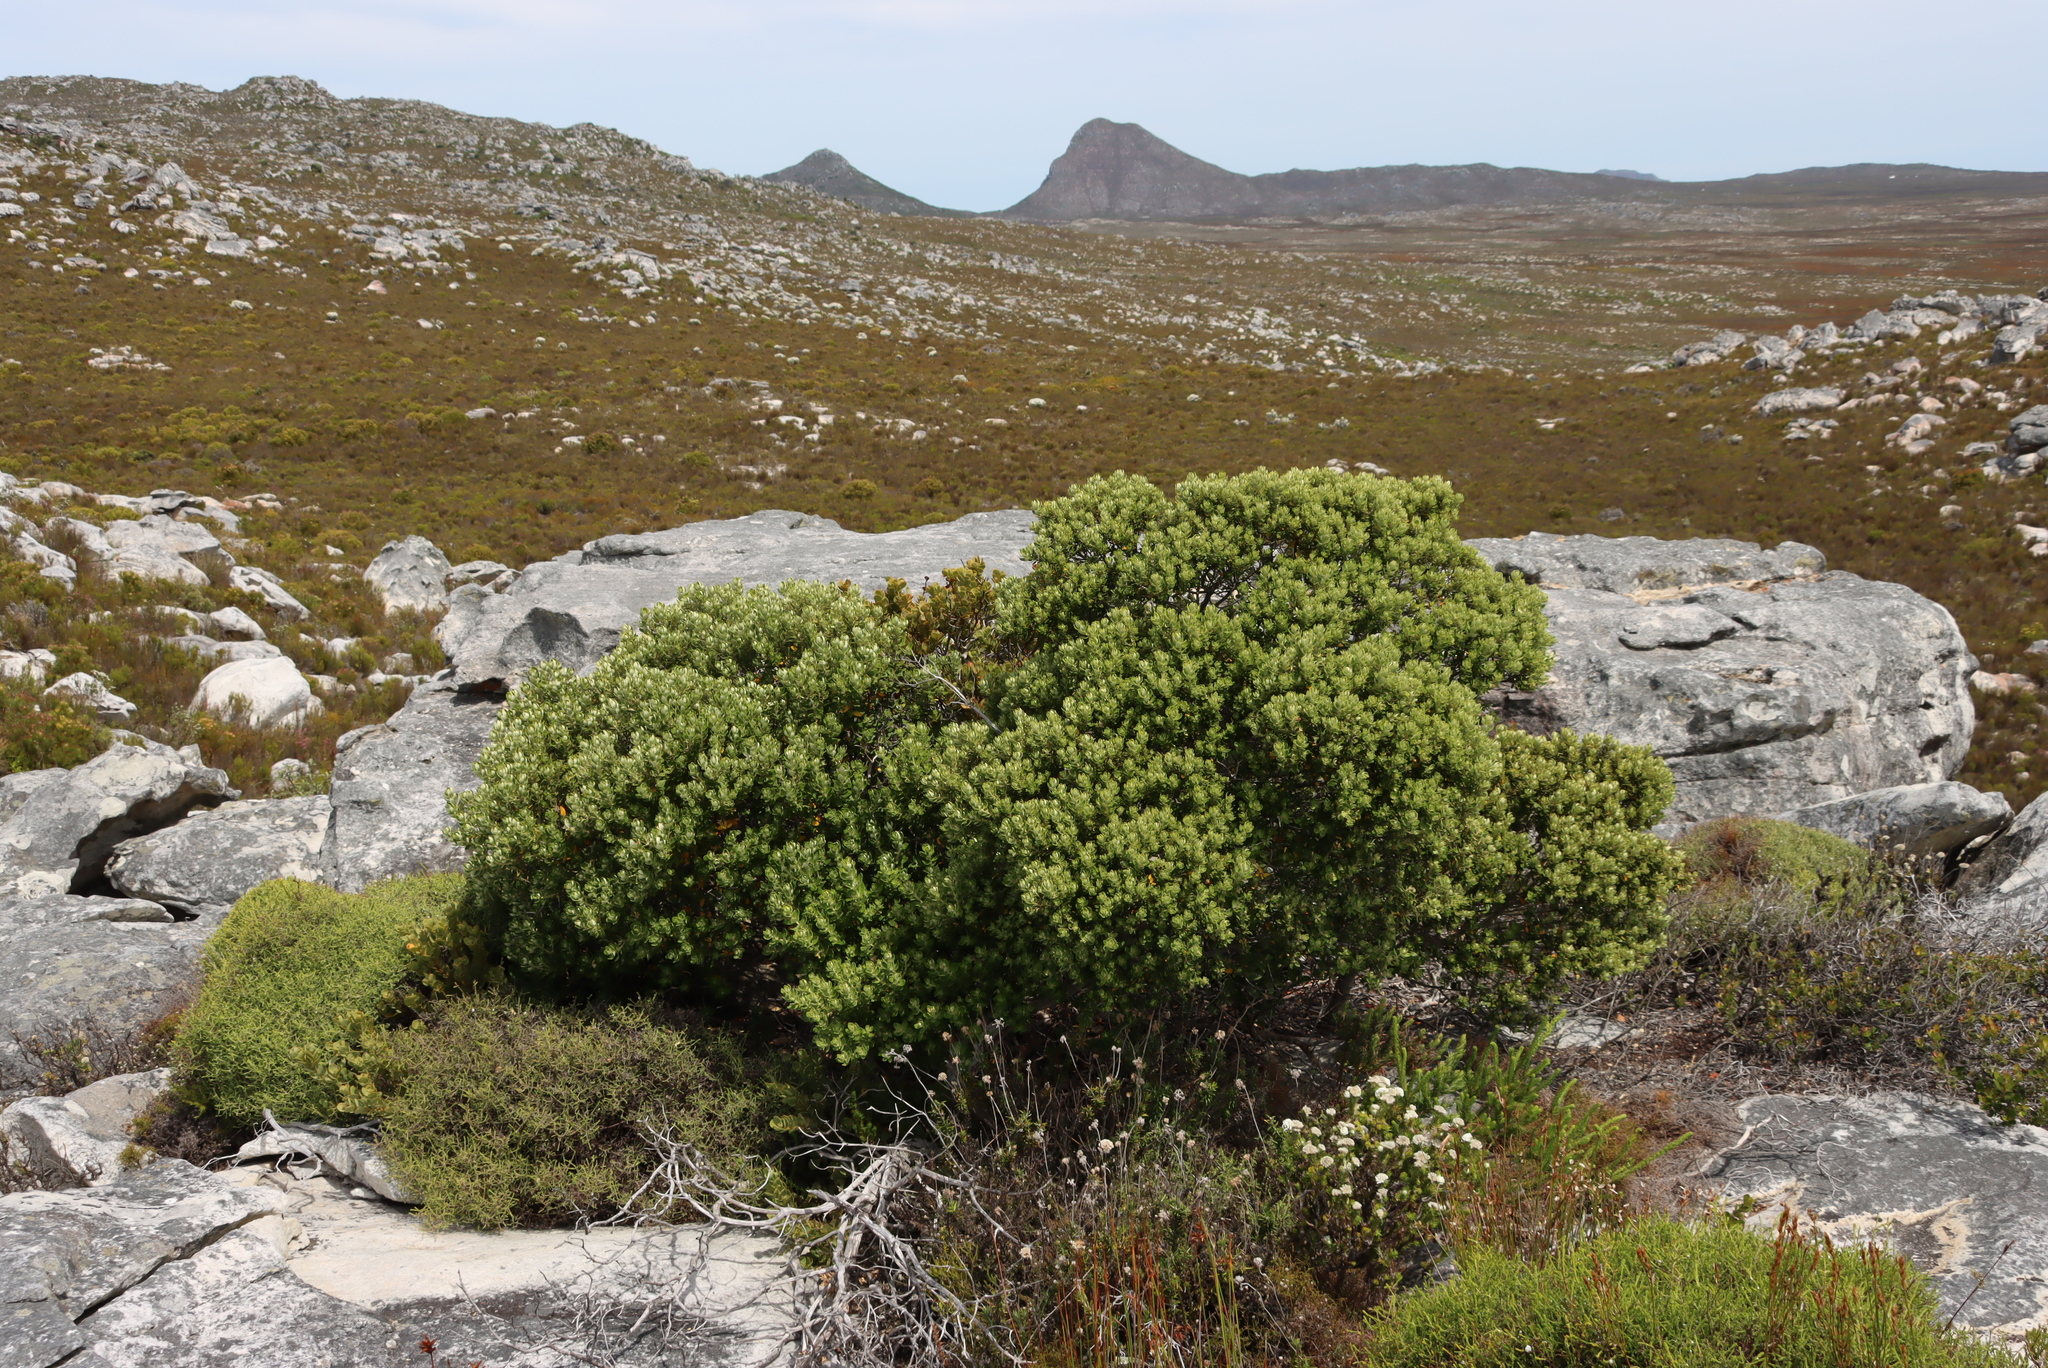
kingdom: Plantae
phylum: Tracheophyta
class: Magnoliopsida
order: Rosales
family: Rhamnaceae
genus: Phylica
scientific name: Phylica buxifolia
